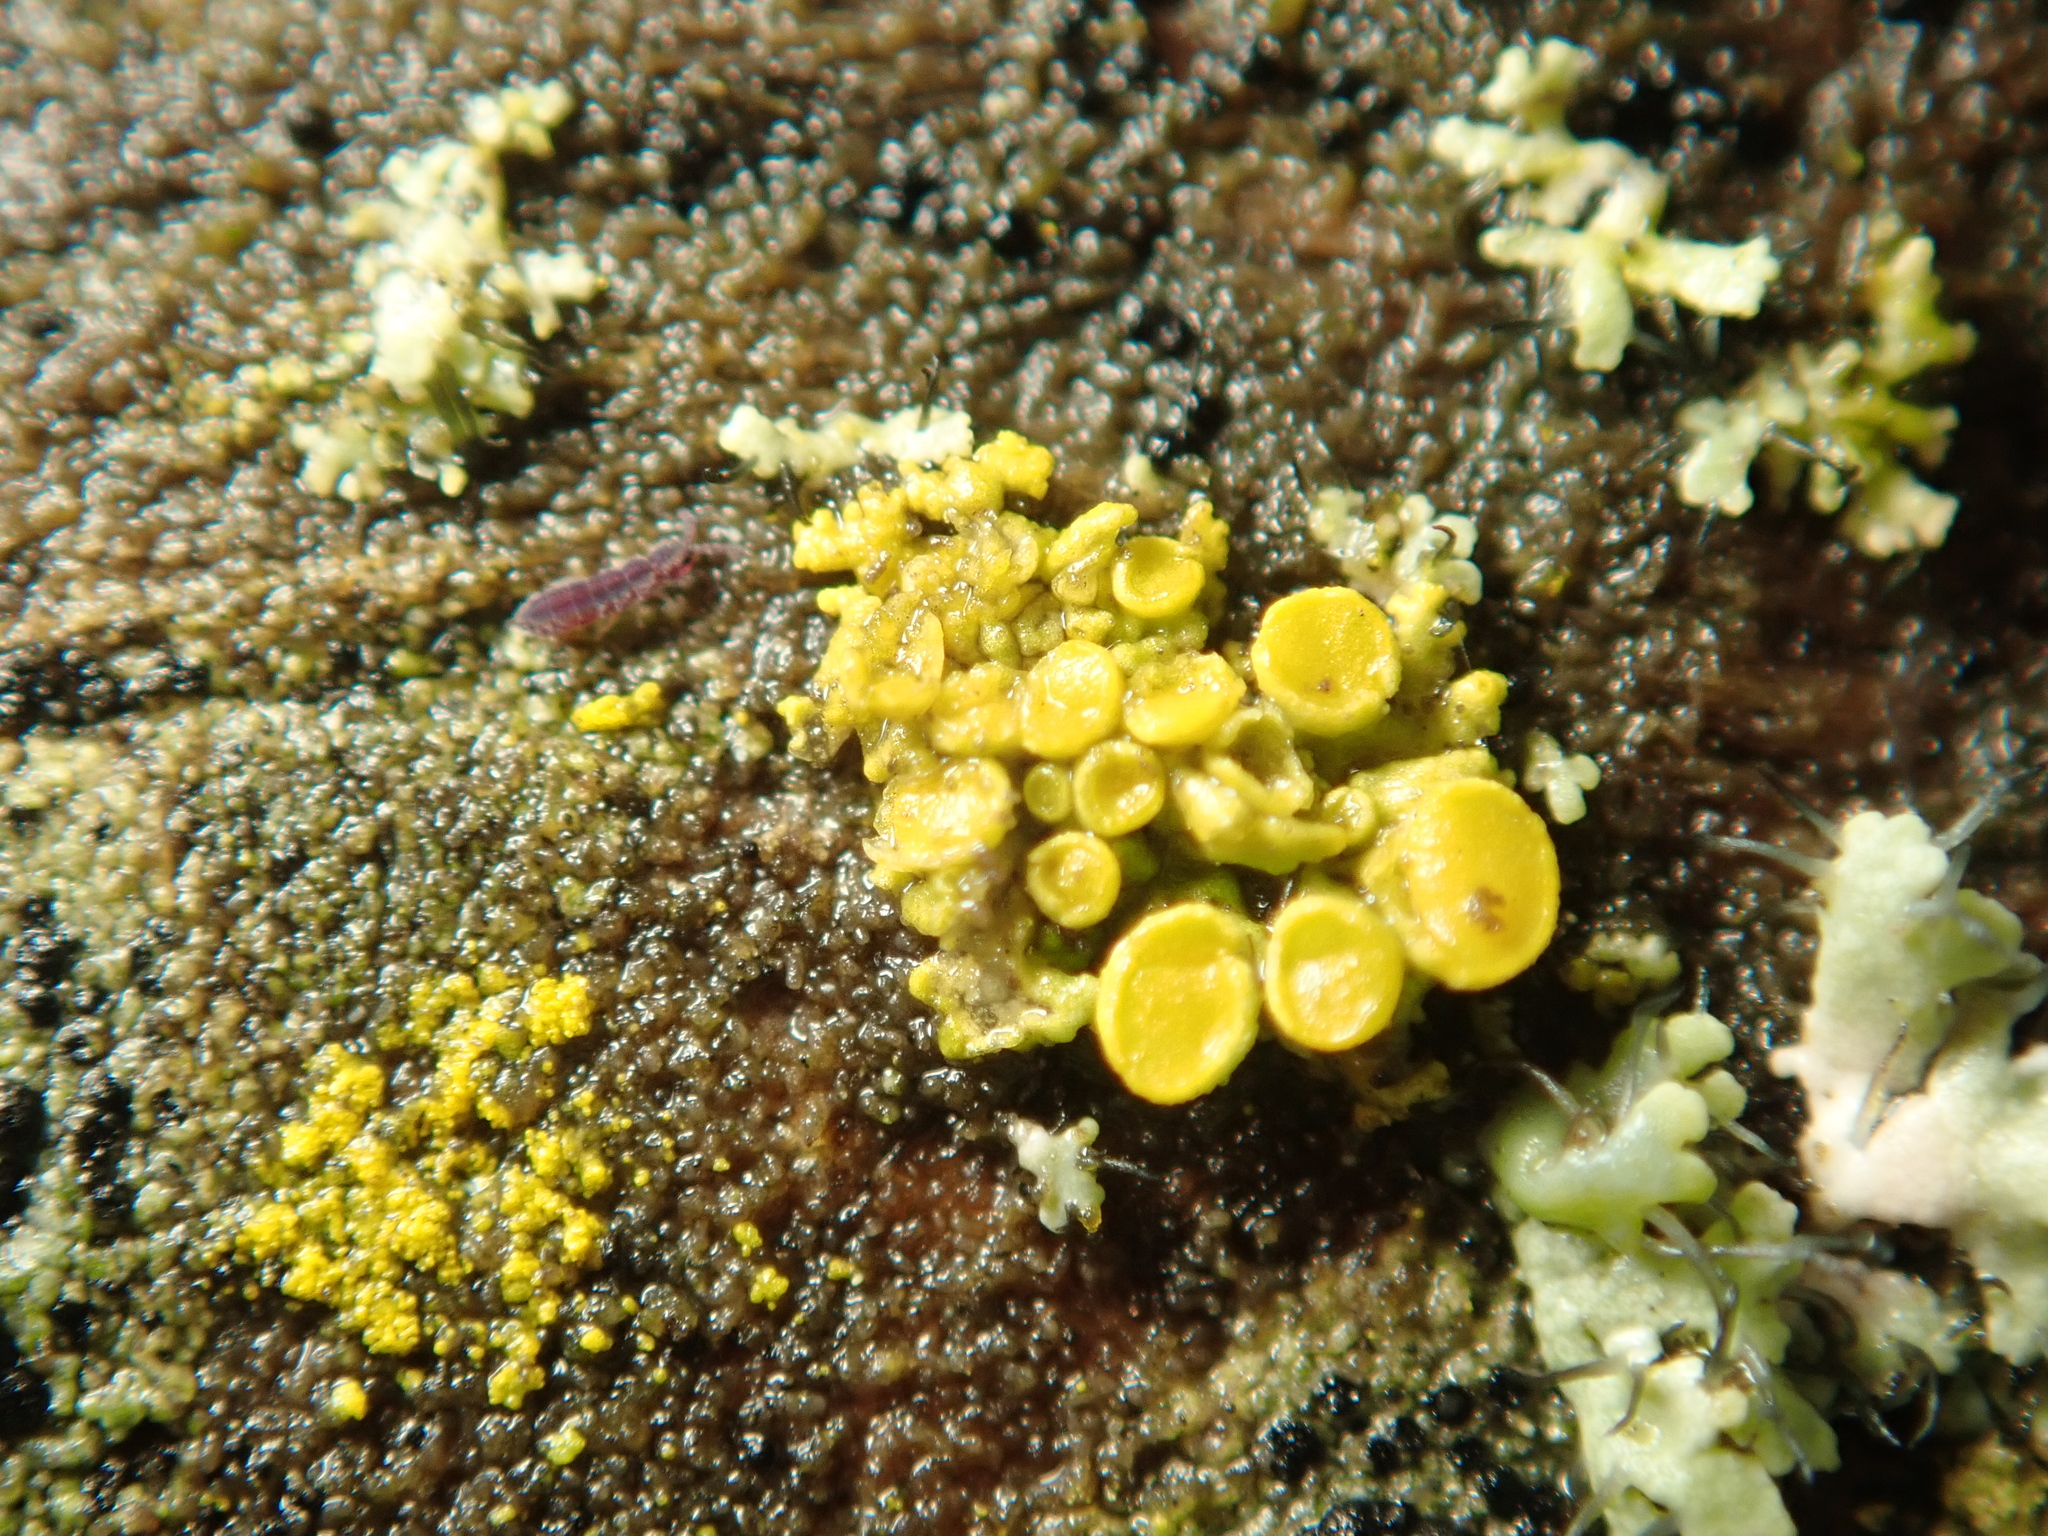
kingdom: Fungi
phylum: Ascomycota
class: Lecanoromycetes
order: Teloschistales
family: Teloschistaceae
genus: Polycauliona
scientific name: Polycauliona polycarpa
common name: Pin-cushion sunburst lichen
